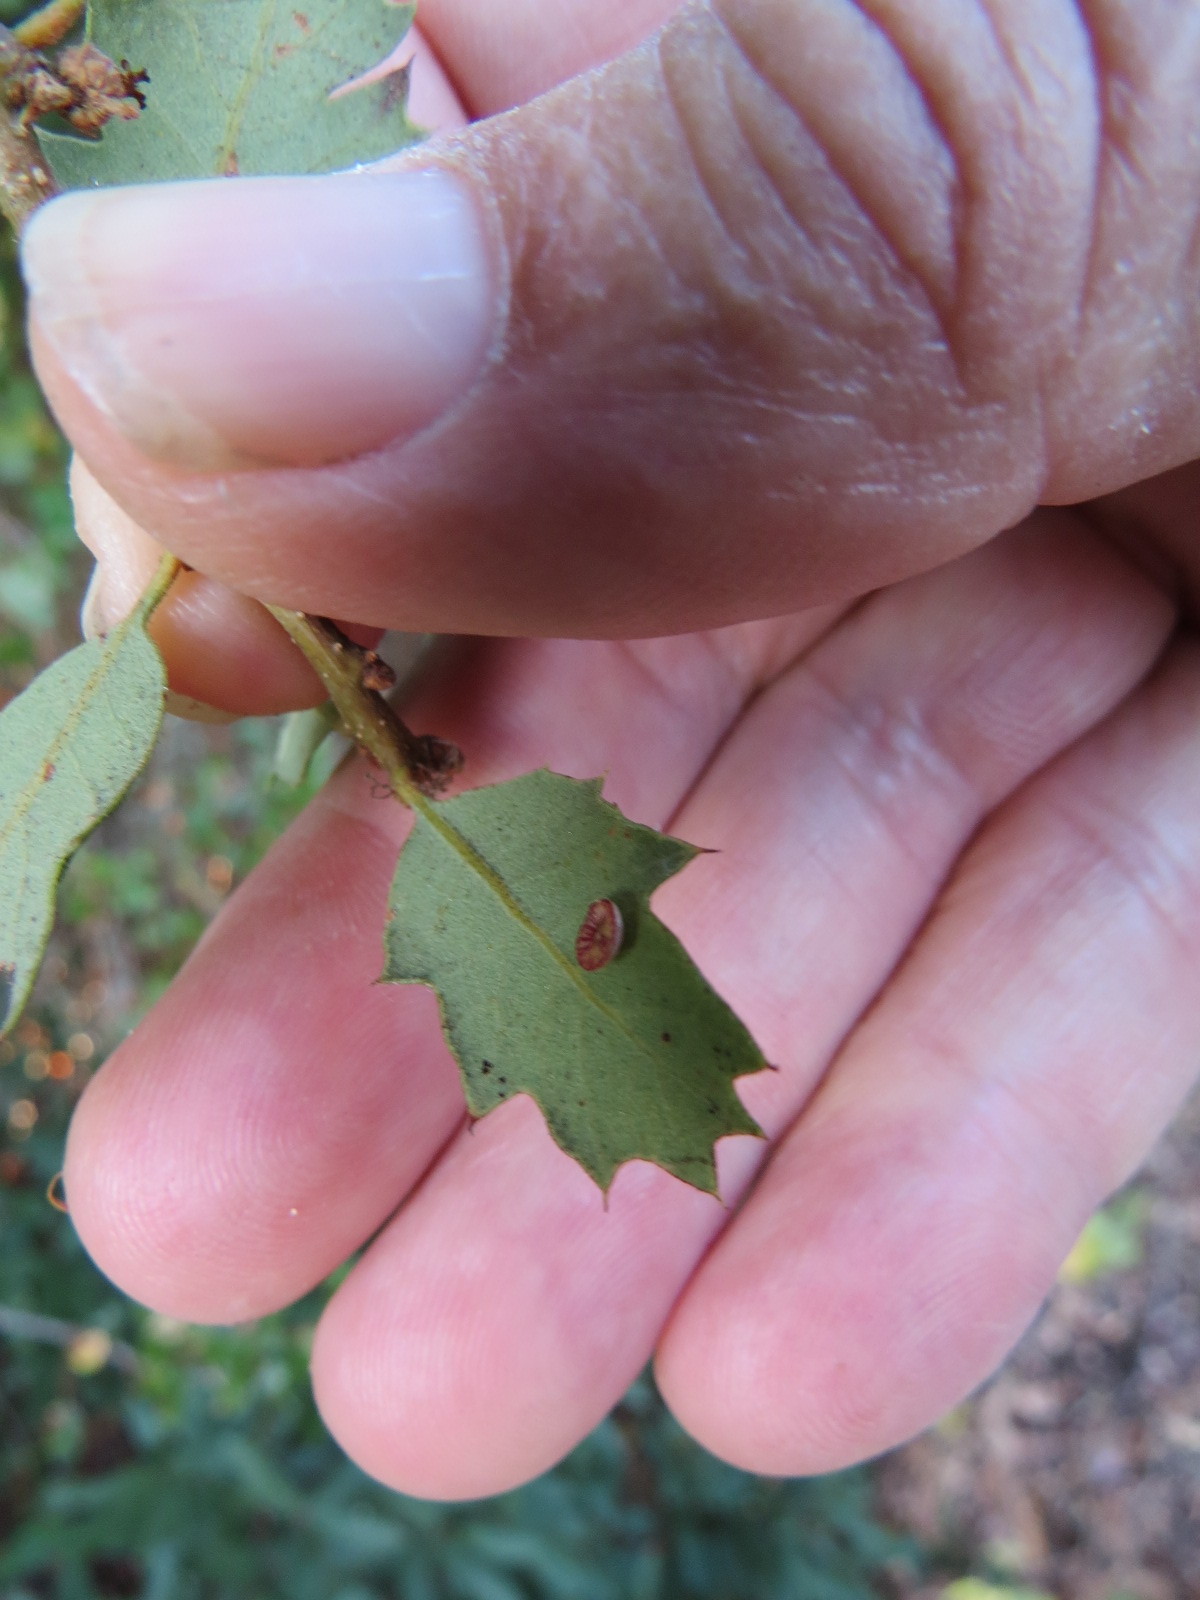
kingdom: Animalia
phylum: Arthropoda
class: Insecta
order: Hymenoptera
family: Cynipidae
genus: Andricus
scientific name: Andricus
